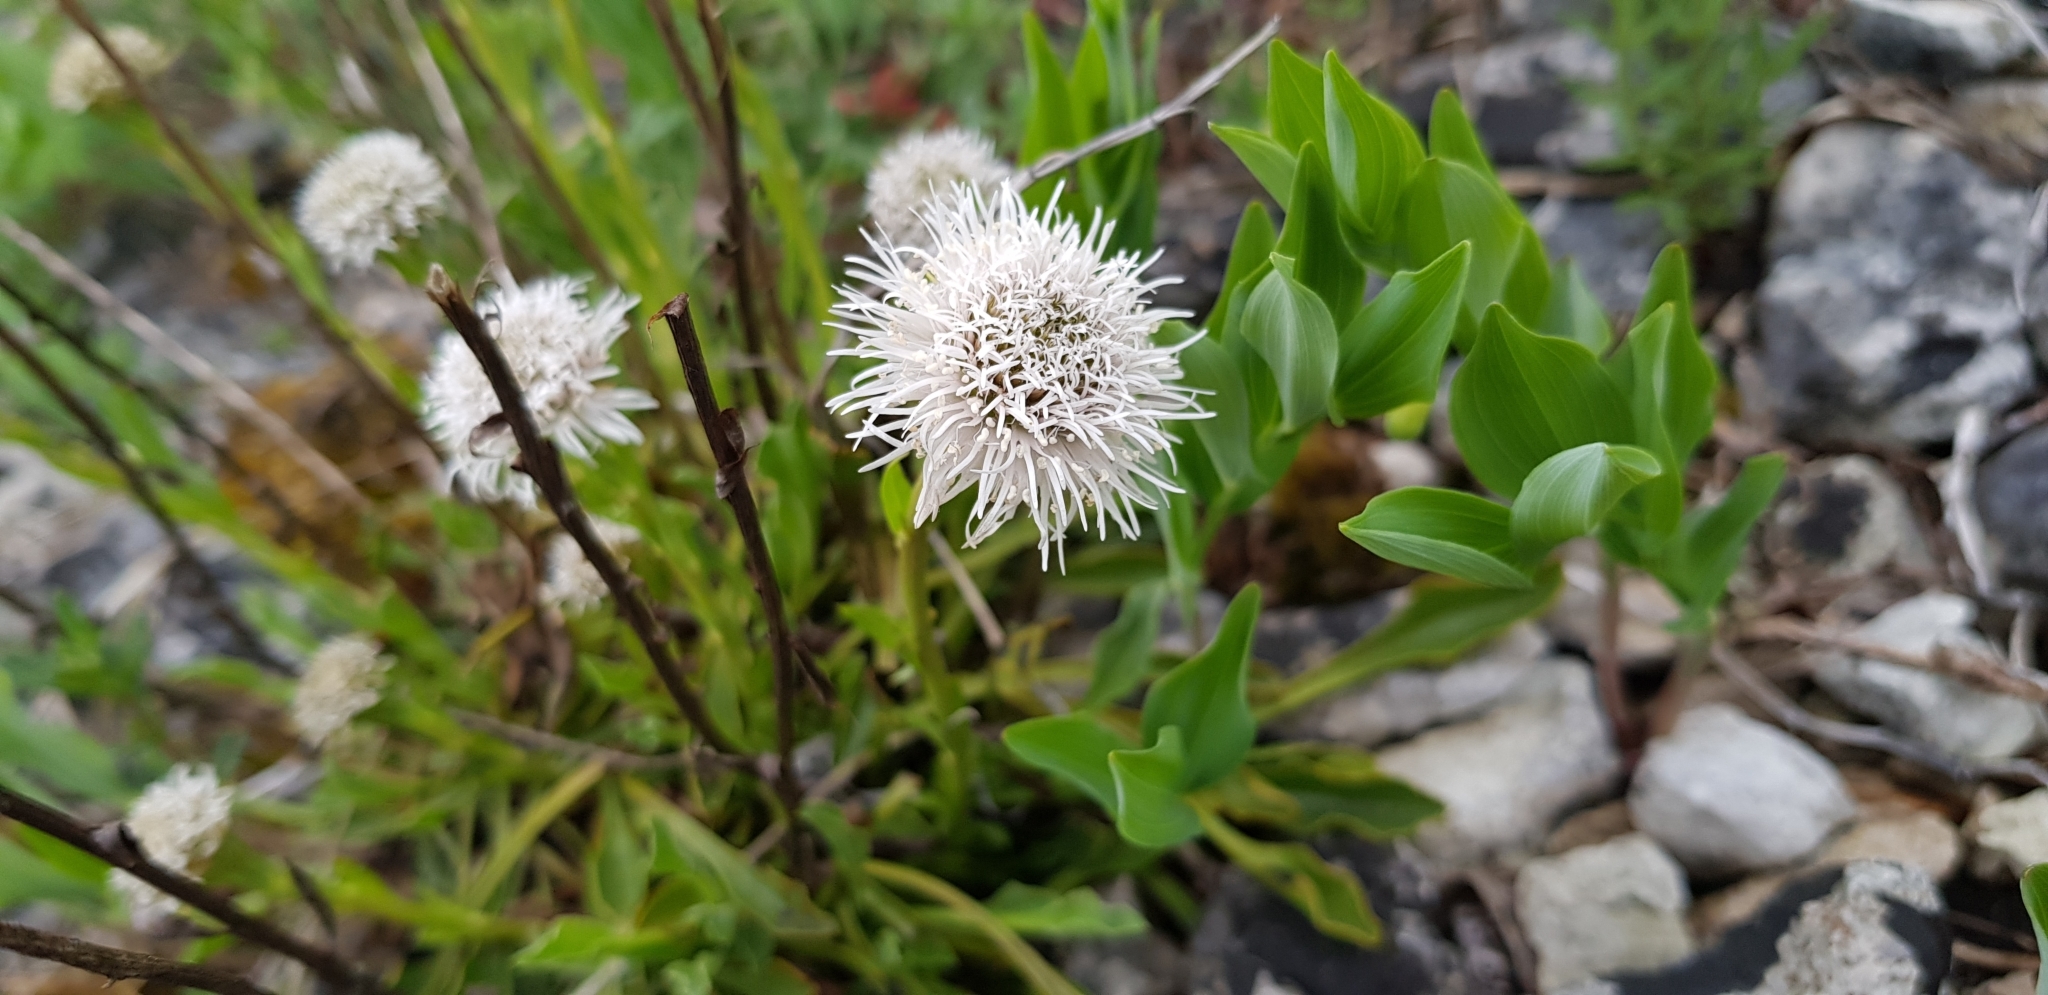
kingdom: Plantae
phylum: Tracheophyta
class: Magnoliopsida
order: Lamiales
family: Plantaginaceae
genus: Globularia
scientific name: Globularia vulgaris
